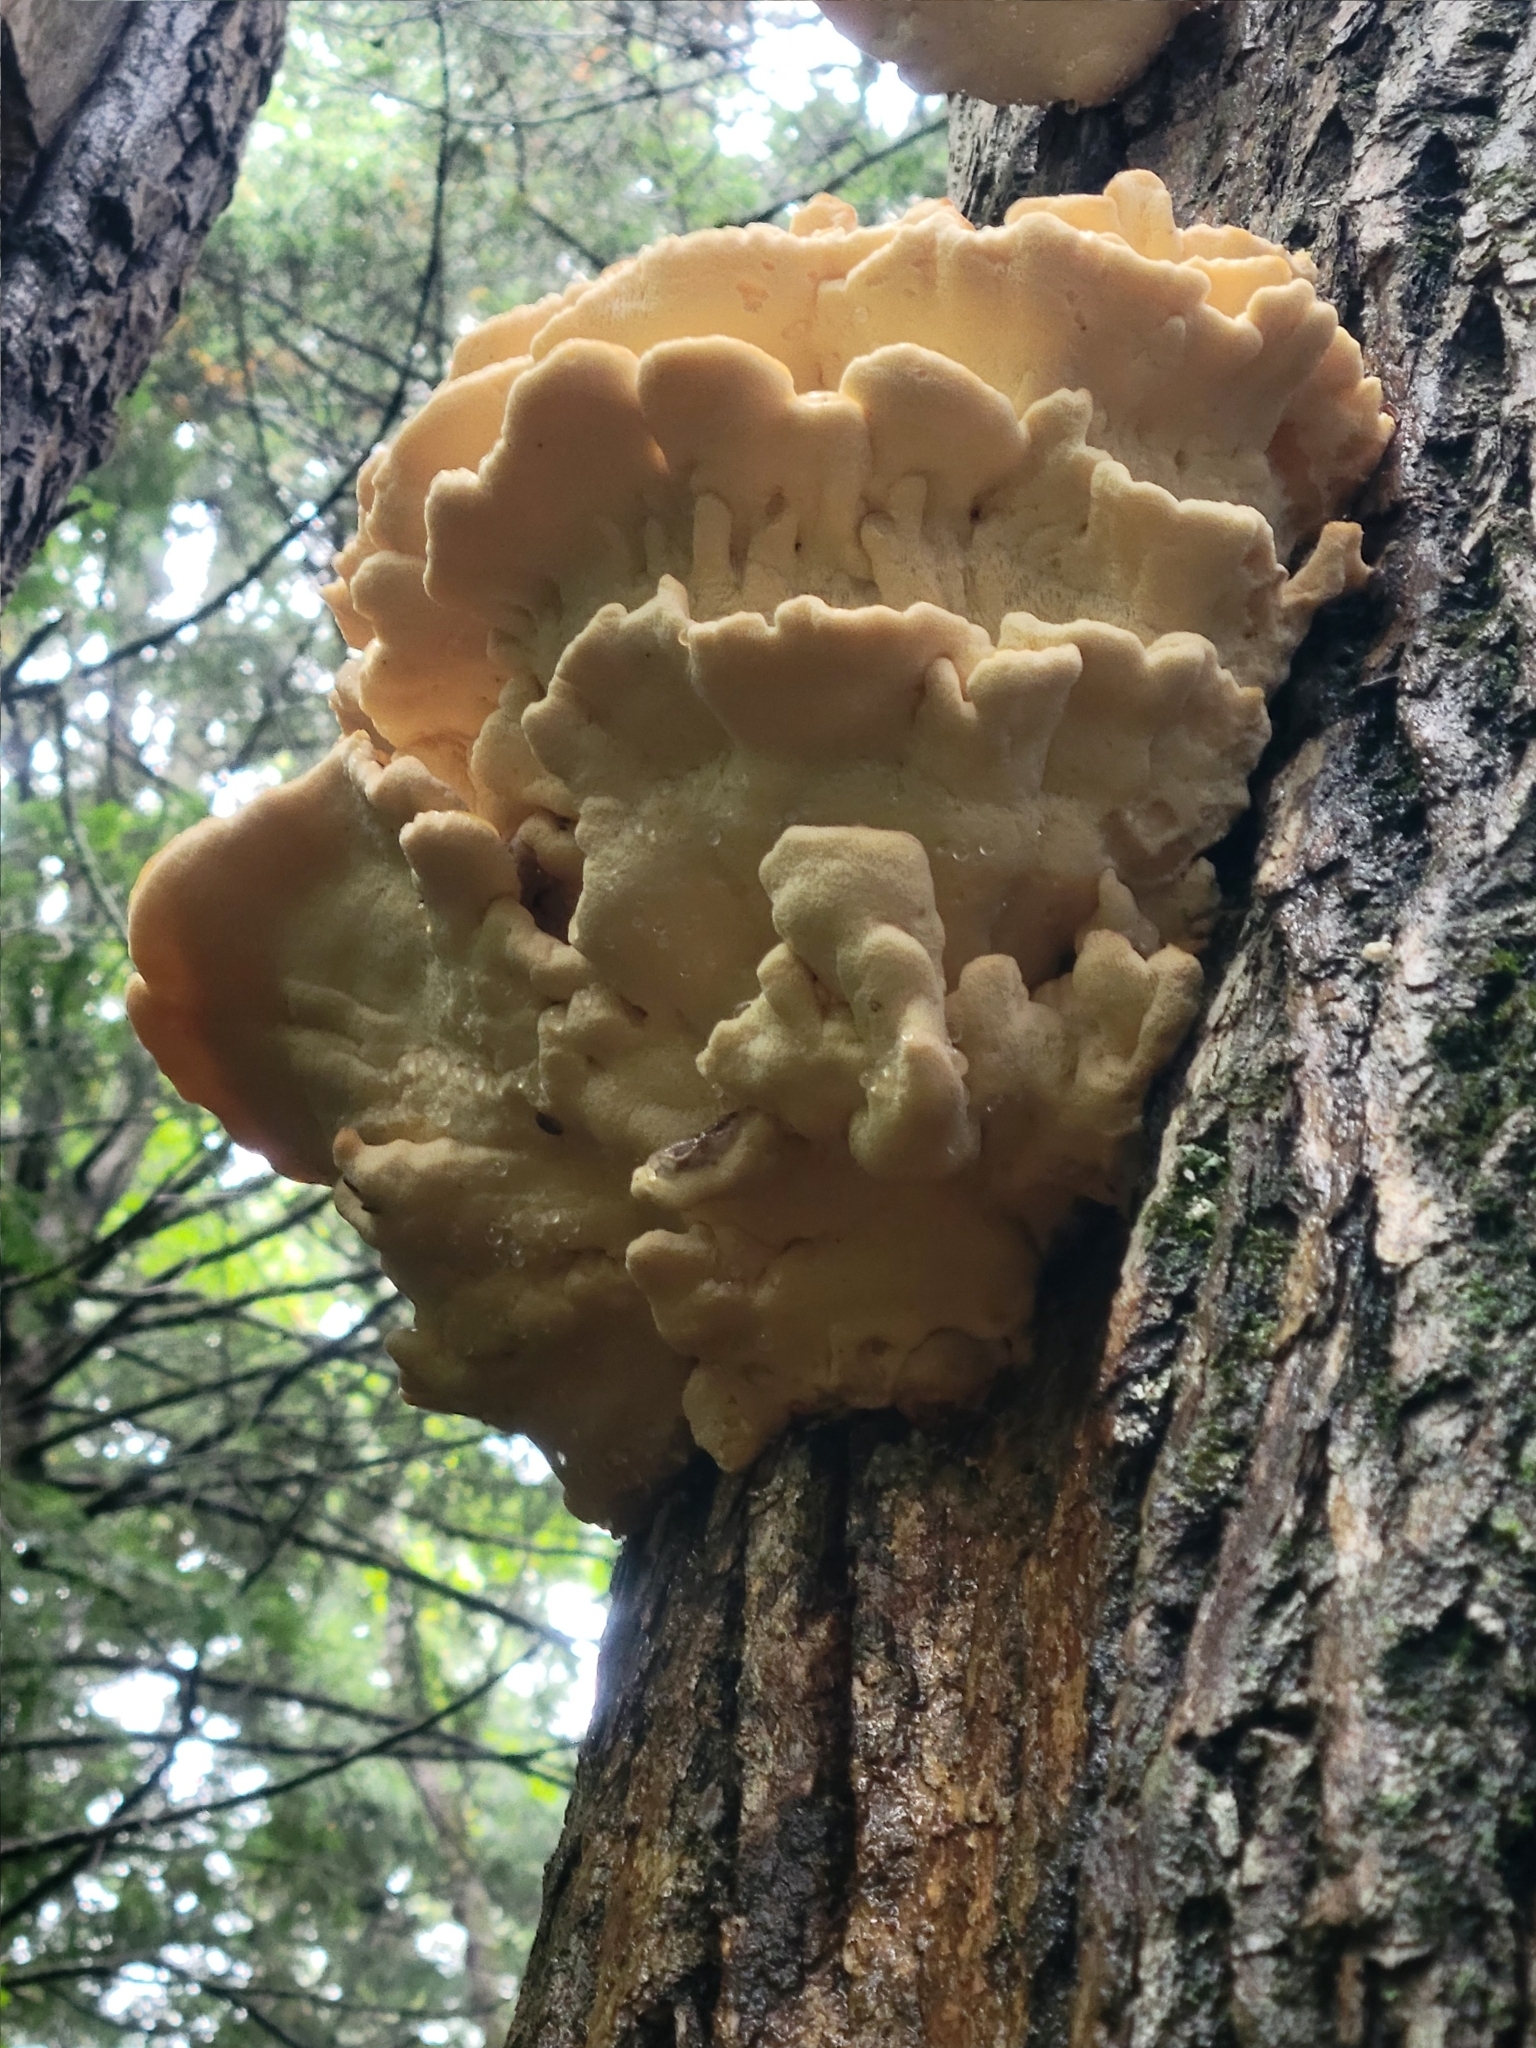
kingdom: Fungi
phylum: Basidiomycota
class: Agaricomycetes
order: Polyporales
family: Laetiporaceae
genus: Laetiporus
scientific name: Laetiporus sulphureus
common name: Chicken of the woods
